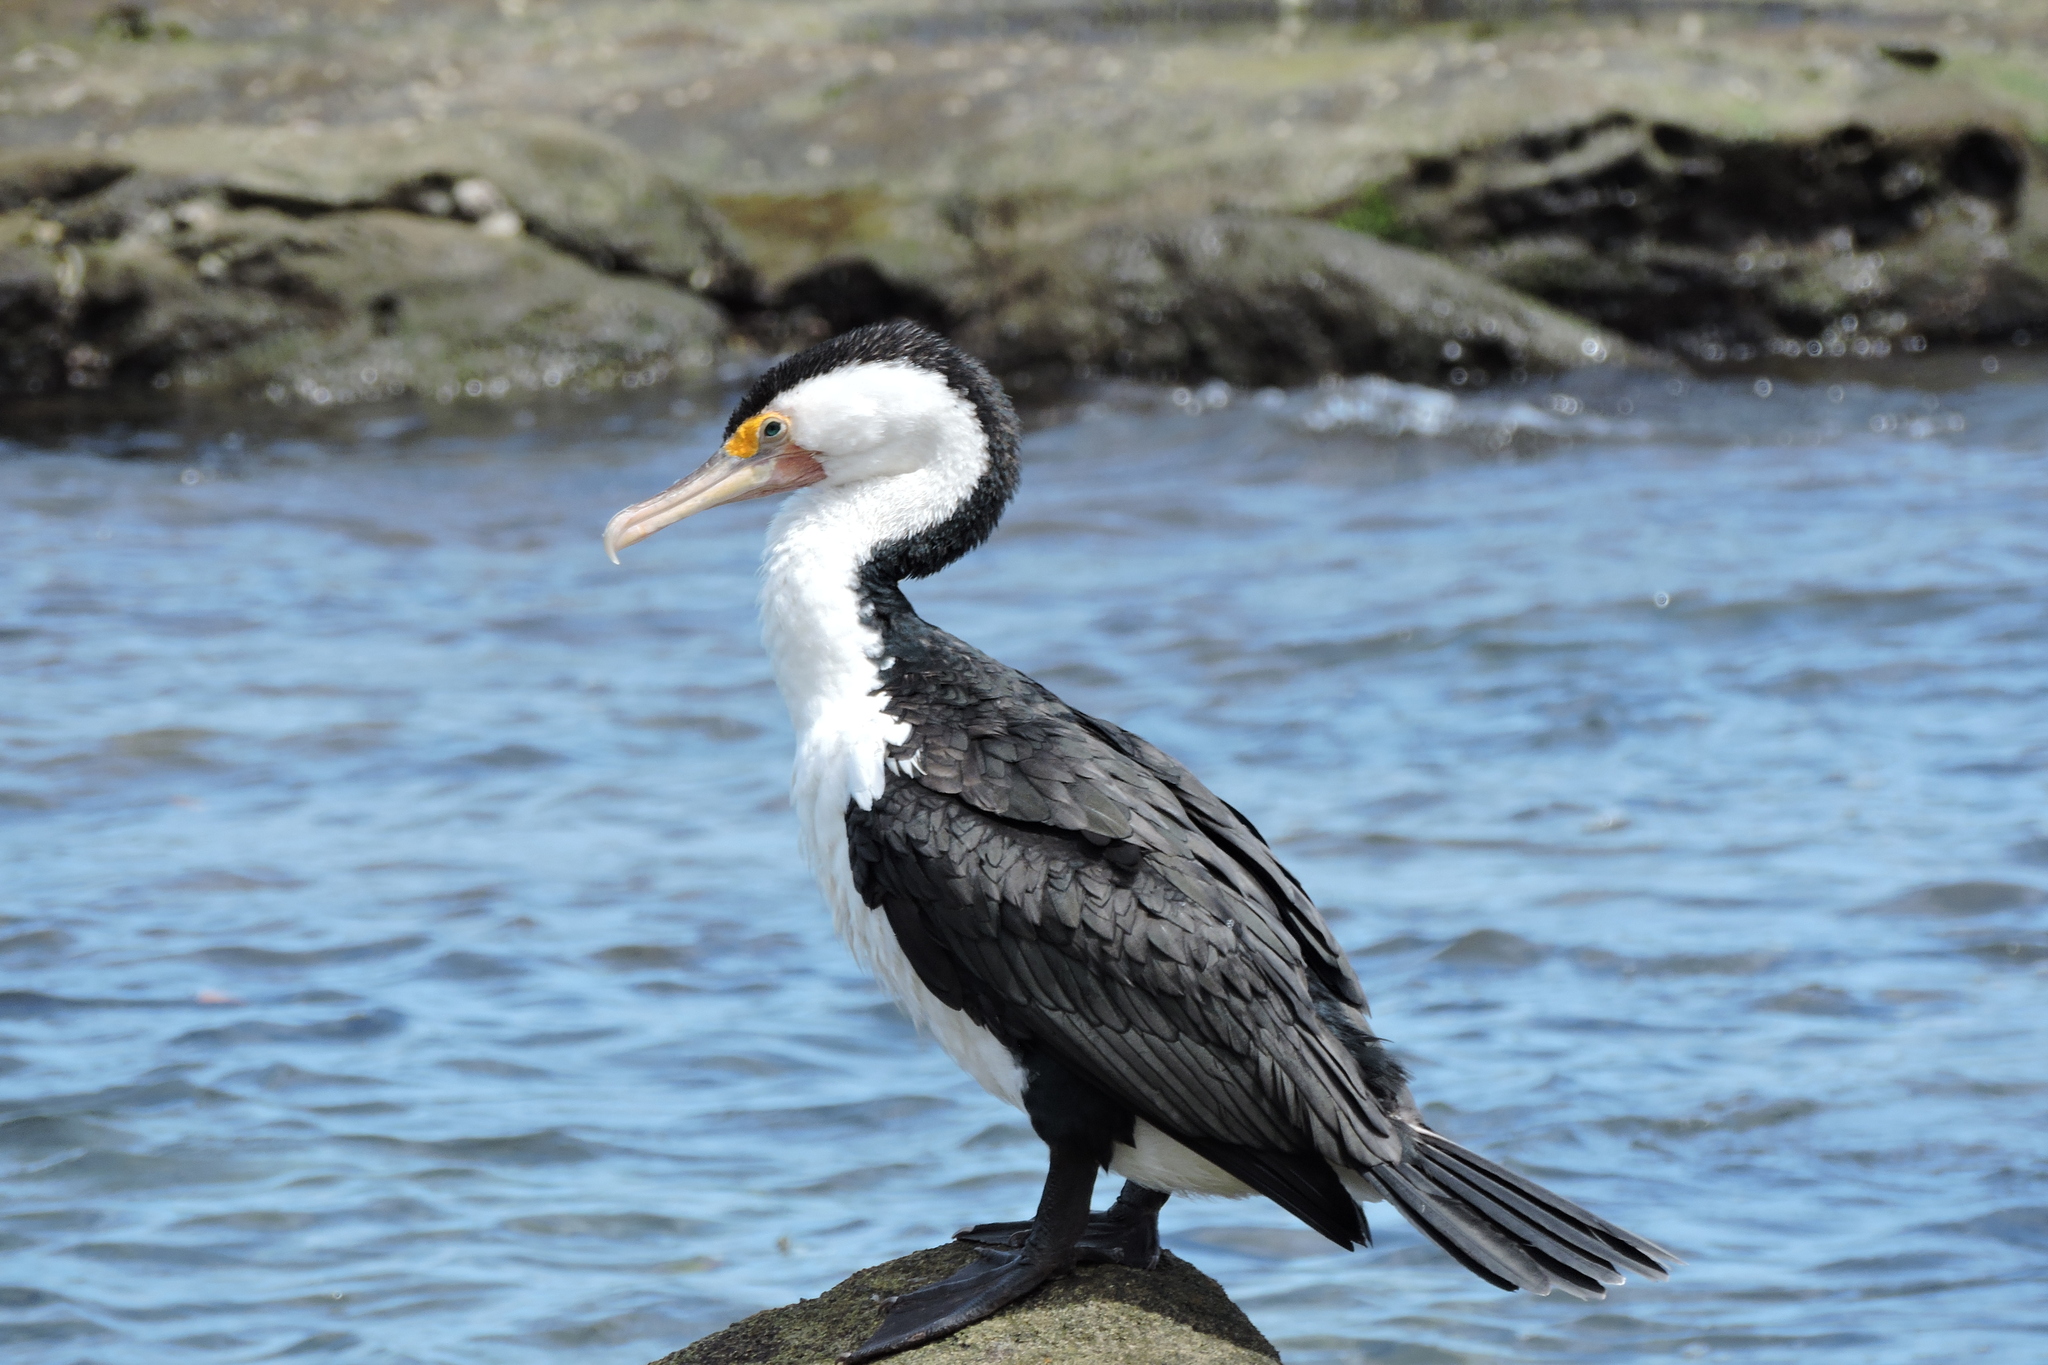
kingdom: Animalia
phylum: Chordata
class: Aves
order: Suliformes
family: Phalacrocoracidae
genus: Phalacrocorax
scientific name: Phalacrocorax varius
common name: Pied cormorant
